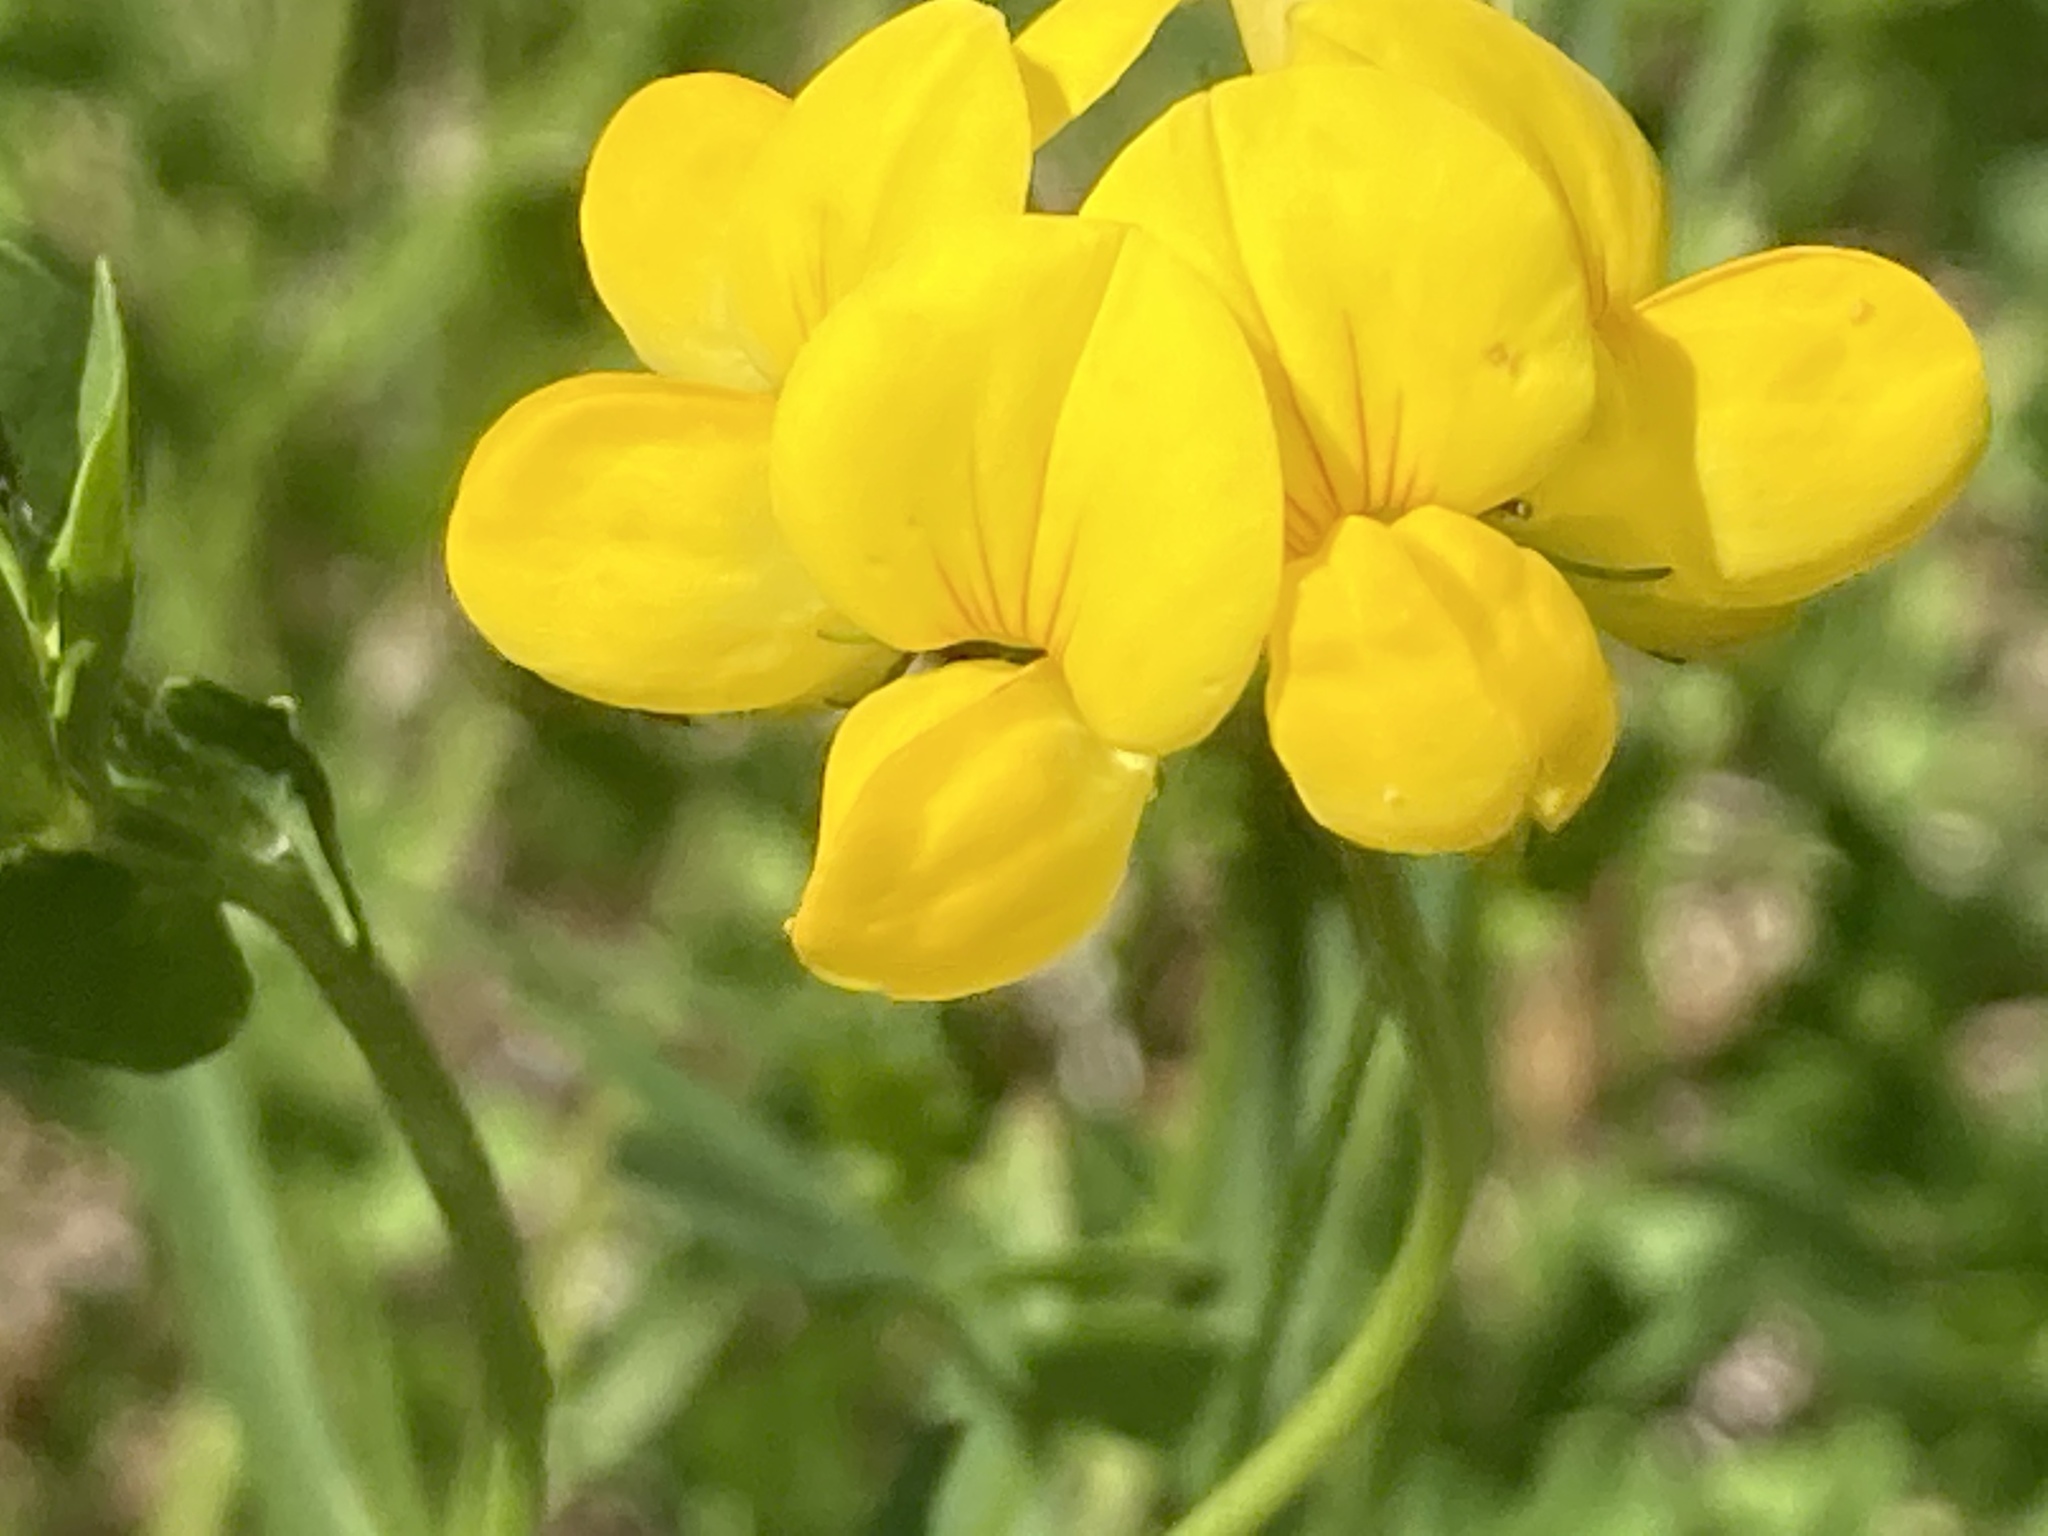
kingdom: Plantae
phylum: Tracheophyta
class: Magnoliopsida
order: Fabales
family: Fabaceae
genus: Lotus
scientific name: Lotus corniculatus
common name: Common bird's-foot-trefoil
